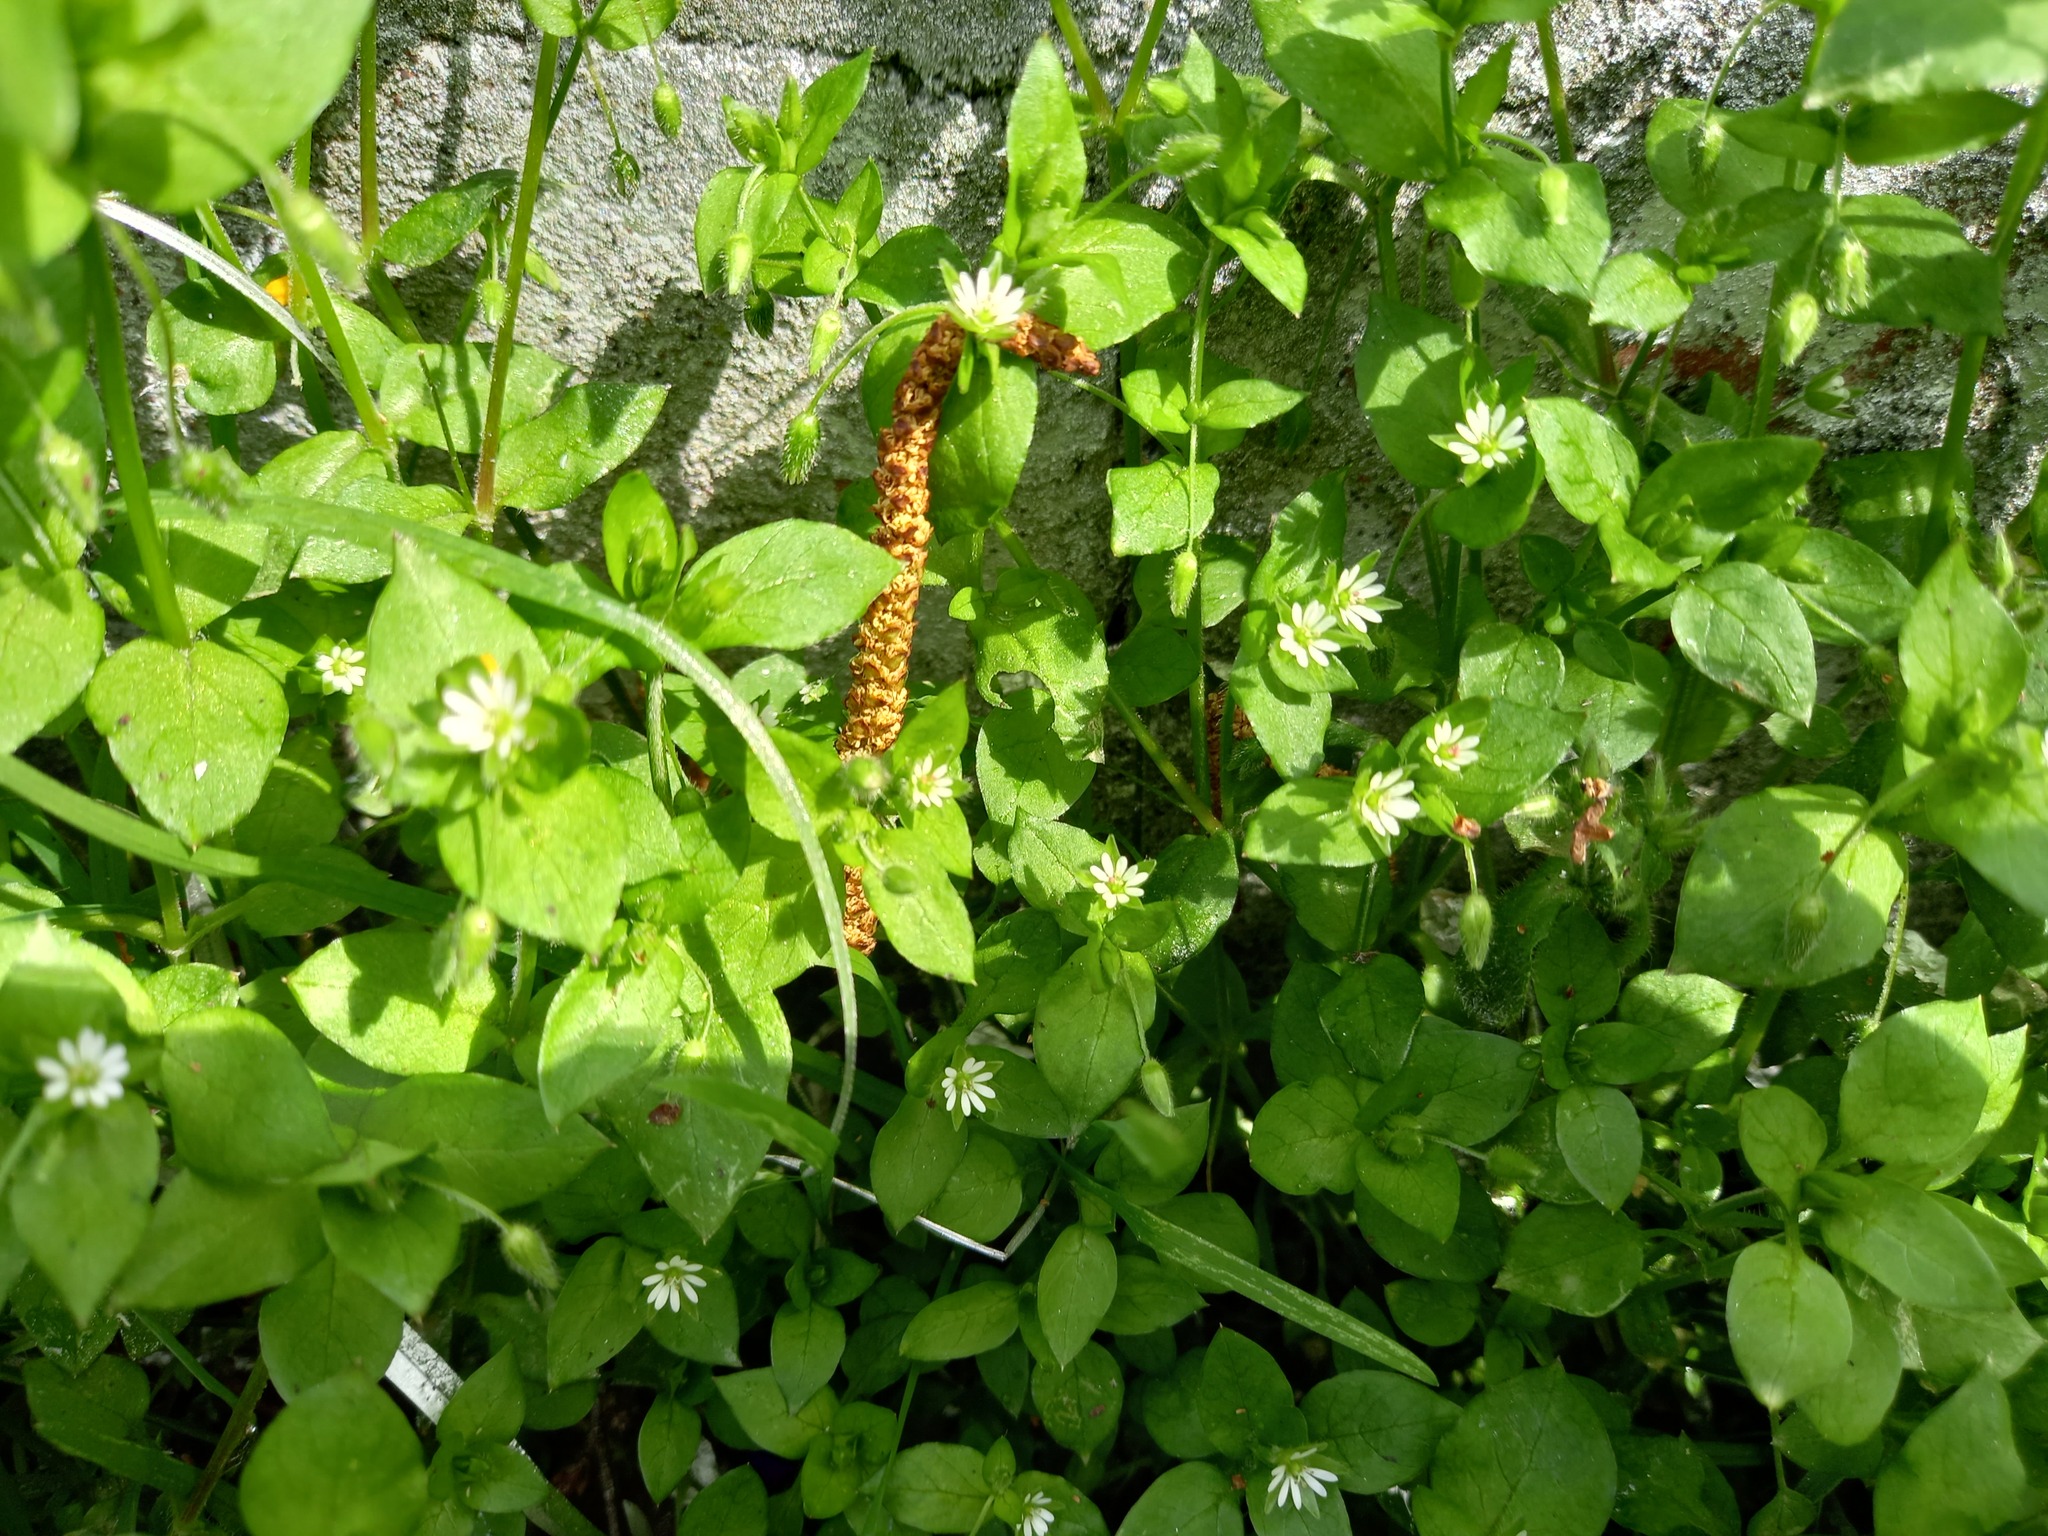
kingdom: Plantae
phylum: Tracheophyta
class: Magnoliopsida
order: Caryophyllales
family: Caryophyllaceae
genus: Stellaria
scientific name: Stellaria media
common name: Common chickweed
